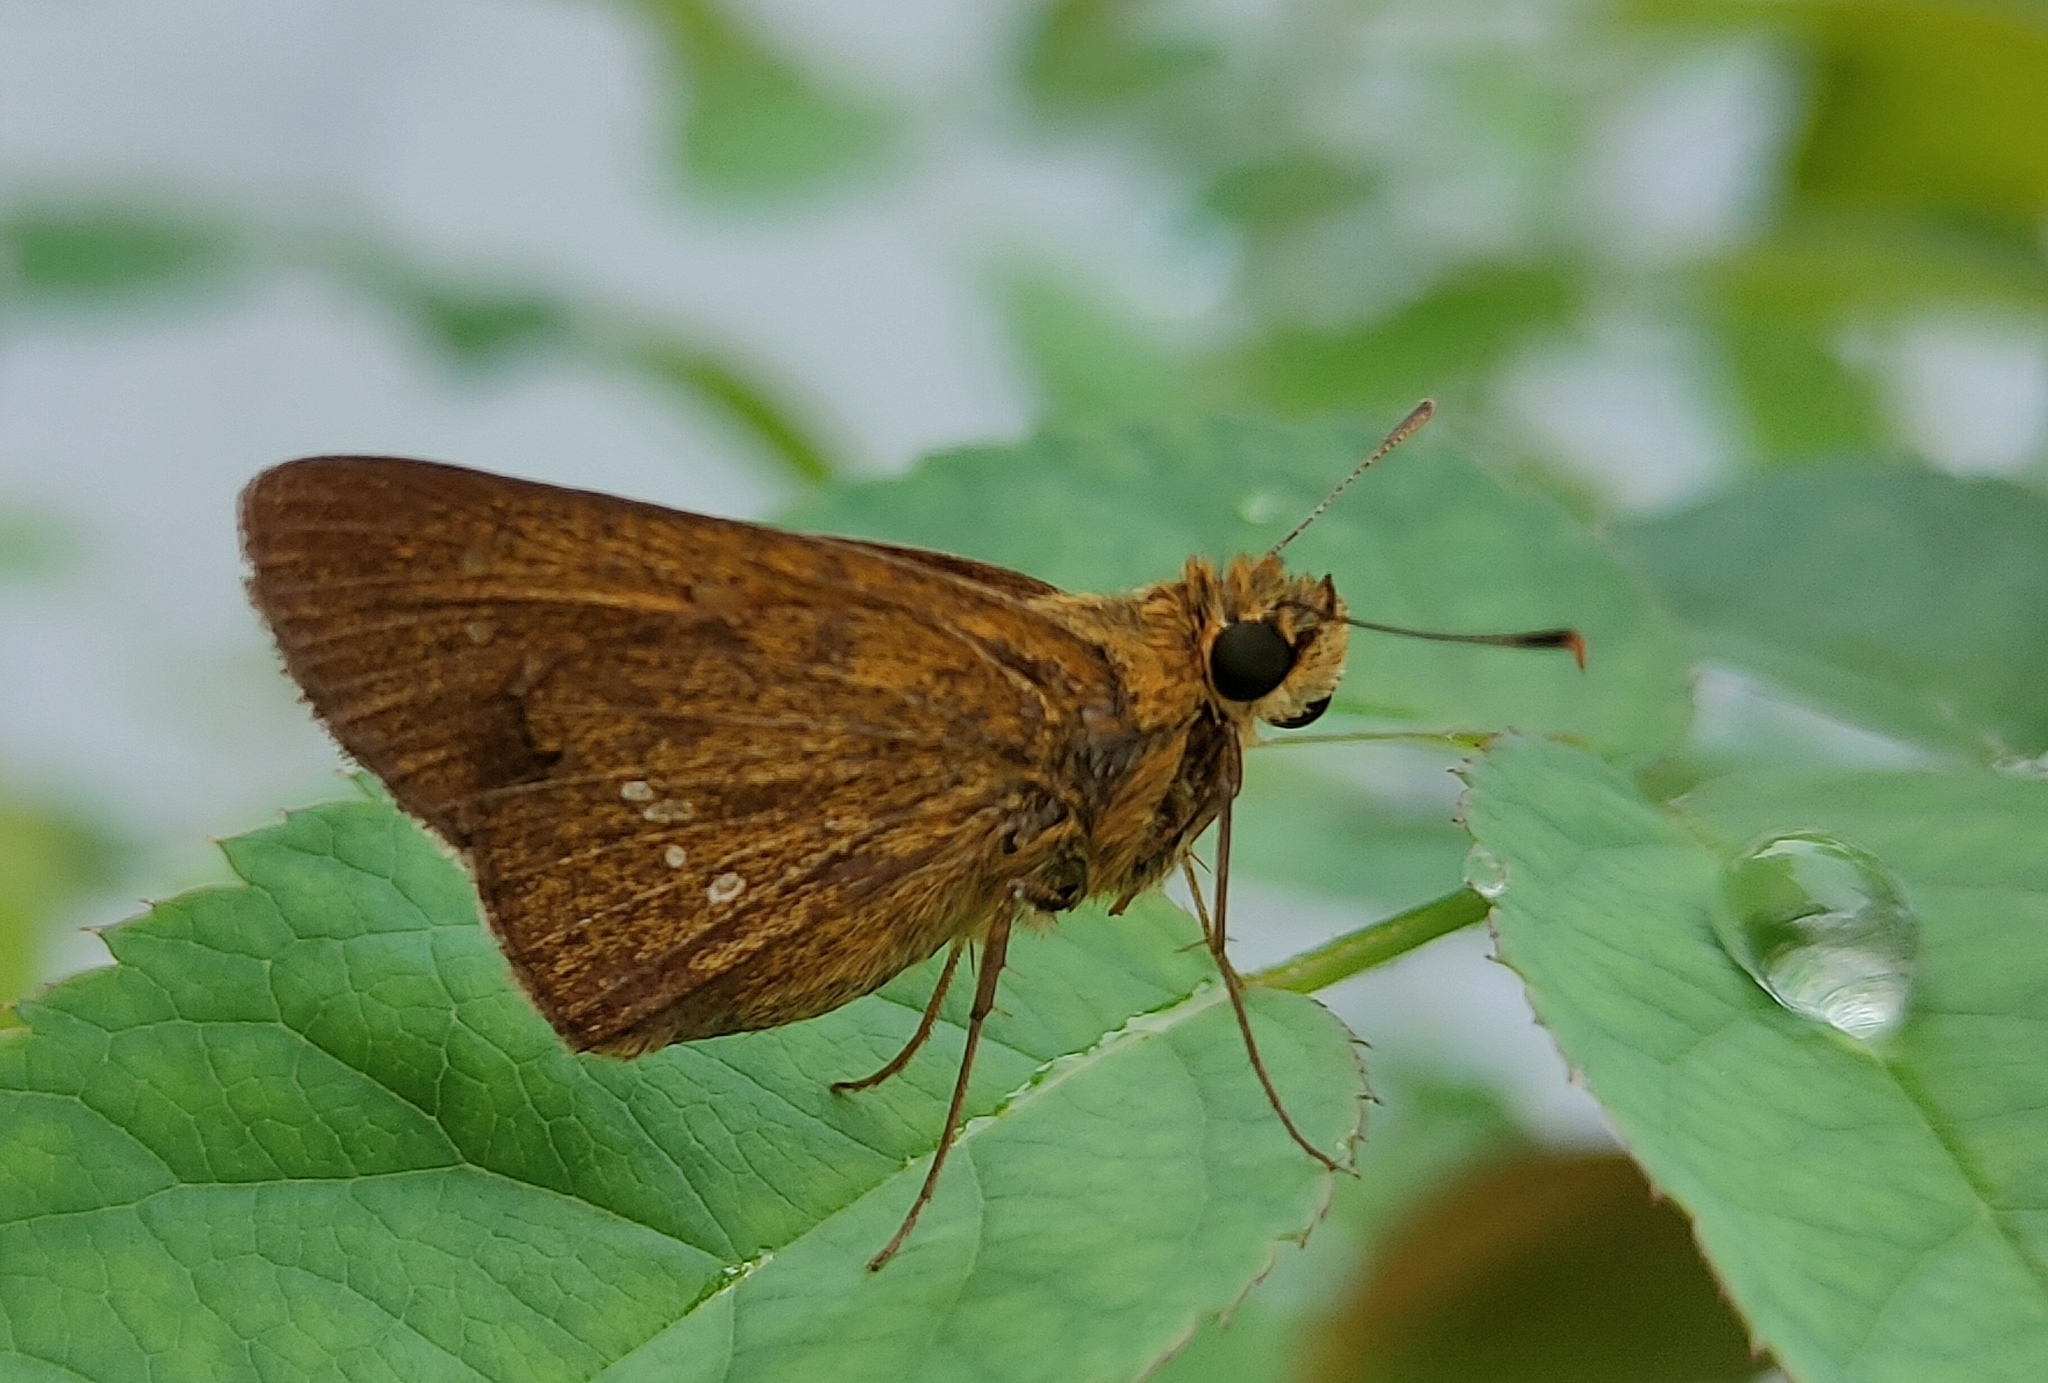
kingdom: Animalia
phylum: Arthropoda
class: Insecta
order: Lepidoptera
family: Hesperiidae
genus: Polytremis
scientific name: Polytremis lubricans
